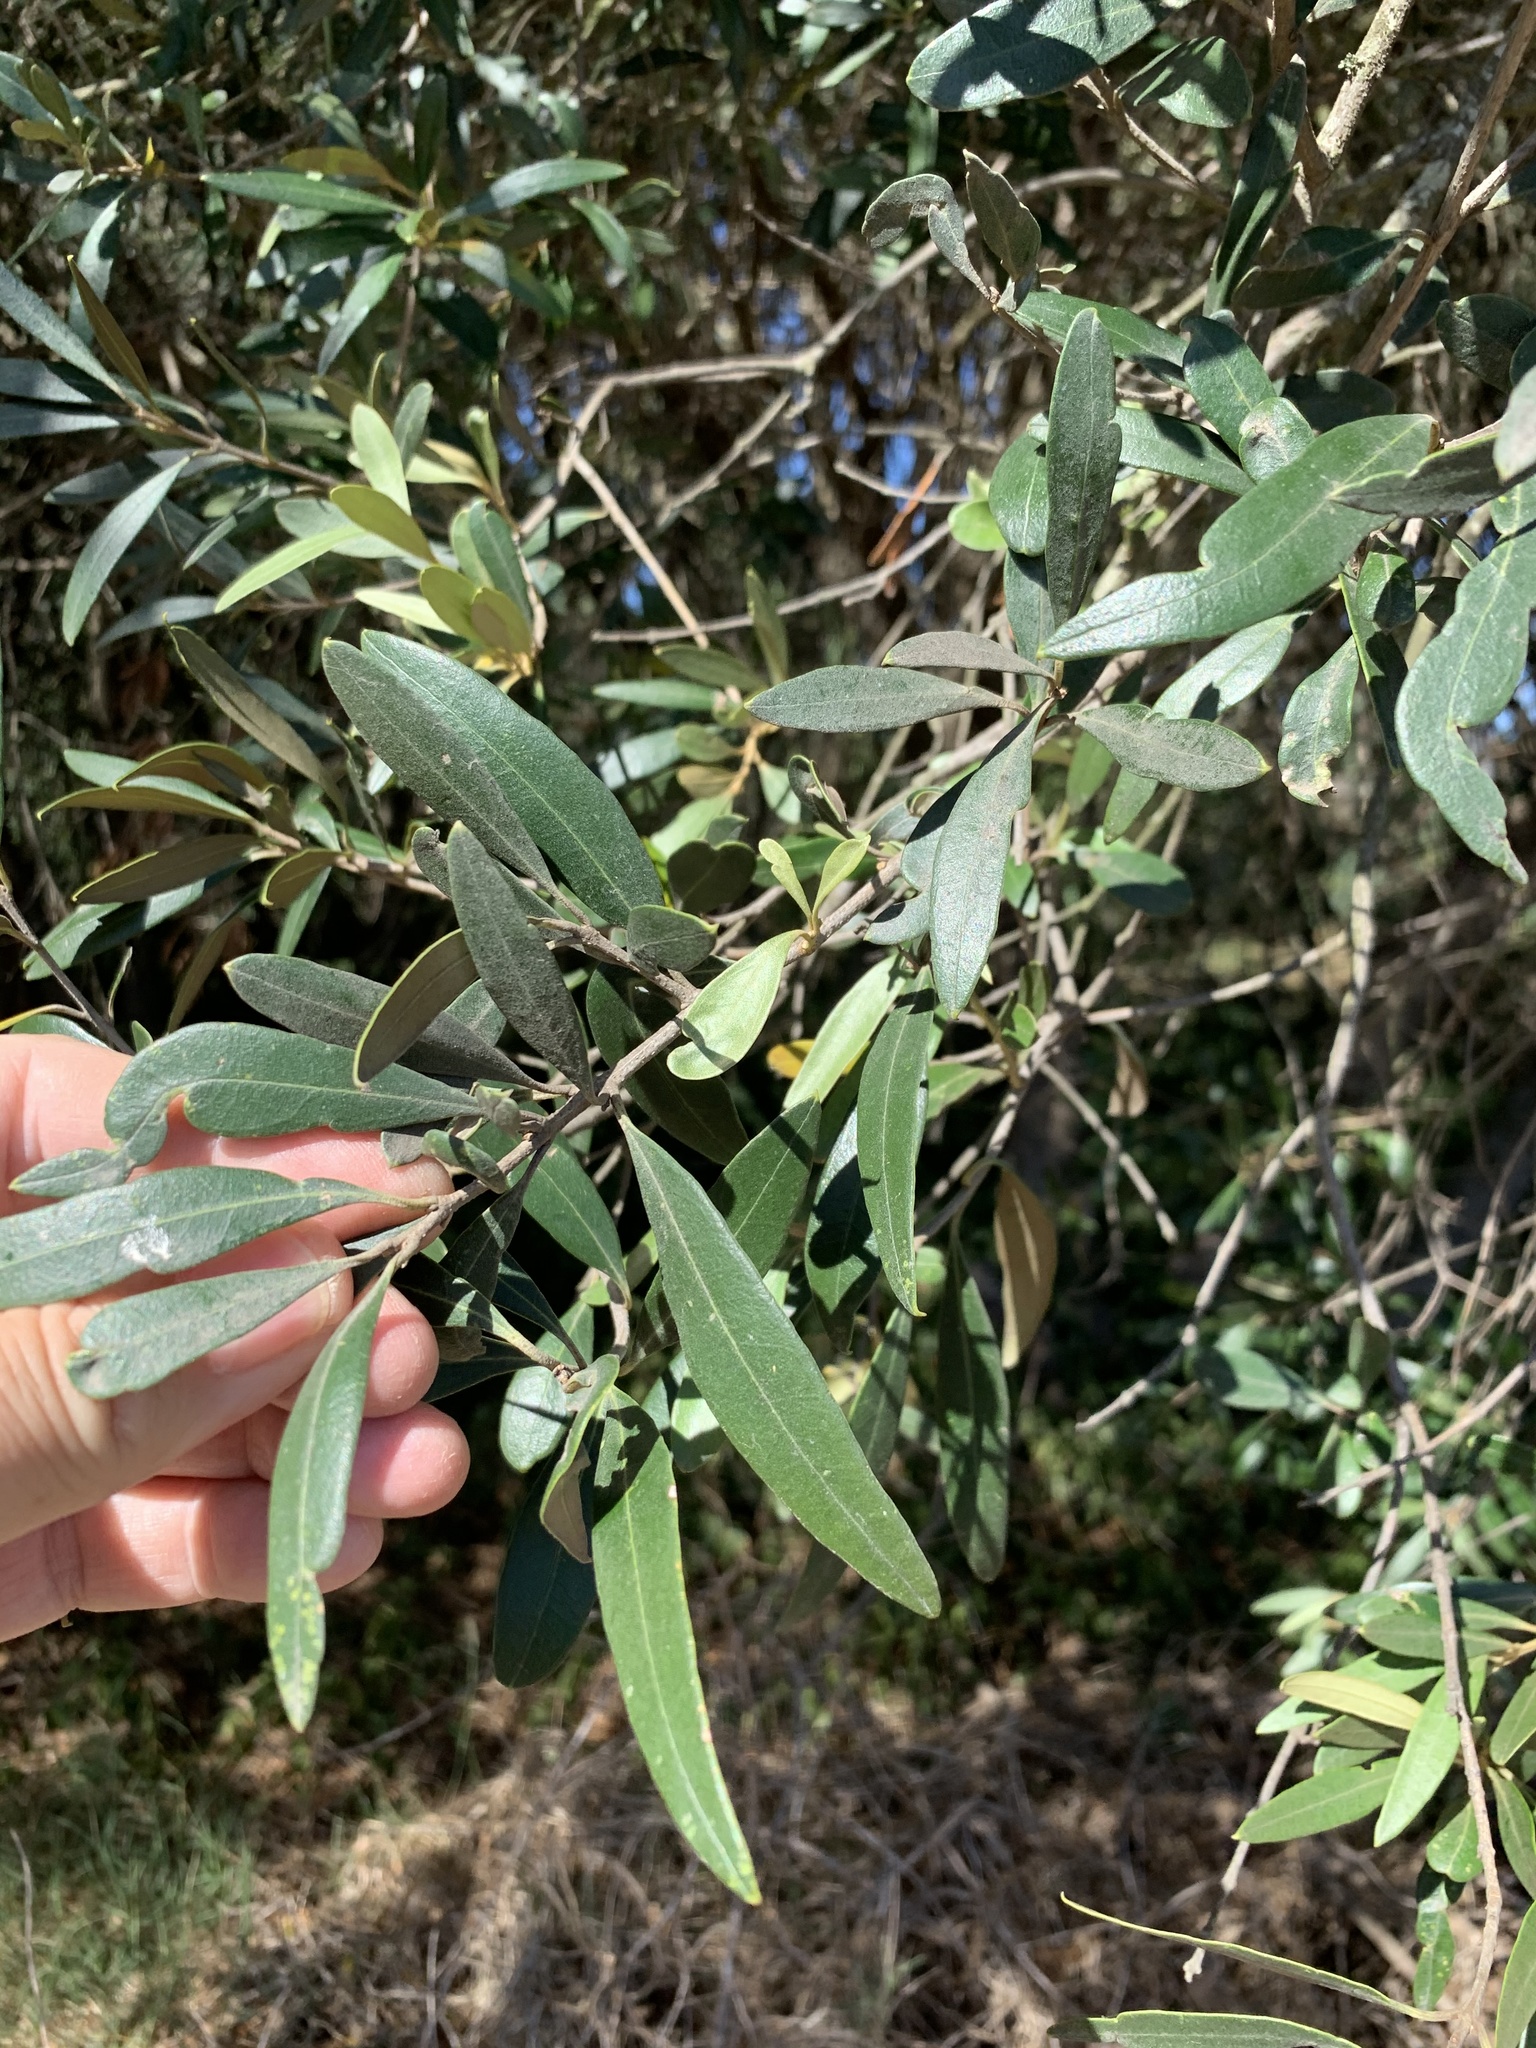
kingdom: Plantae
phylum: Tracheophyta
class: Magnoliopsida
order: Lamiales
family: Oleaceae
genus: Olea
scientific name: Olea europaea
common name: Olive
